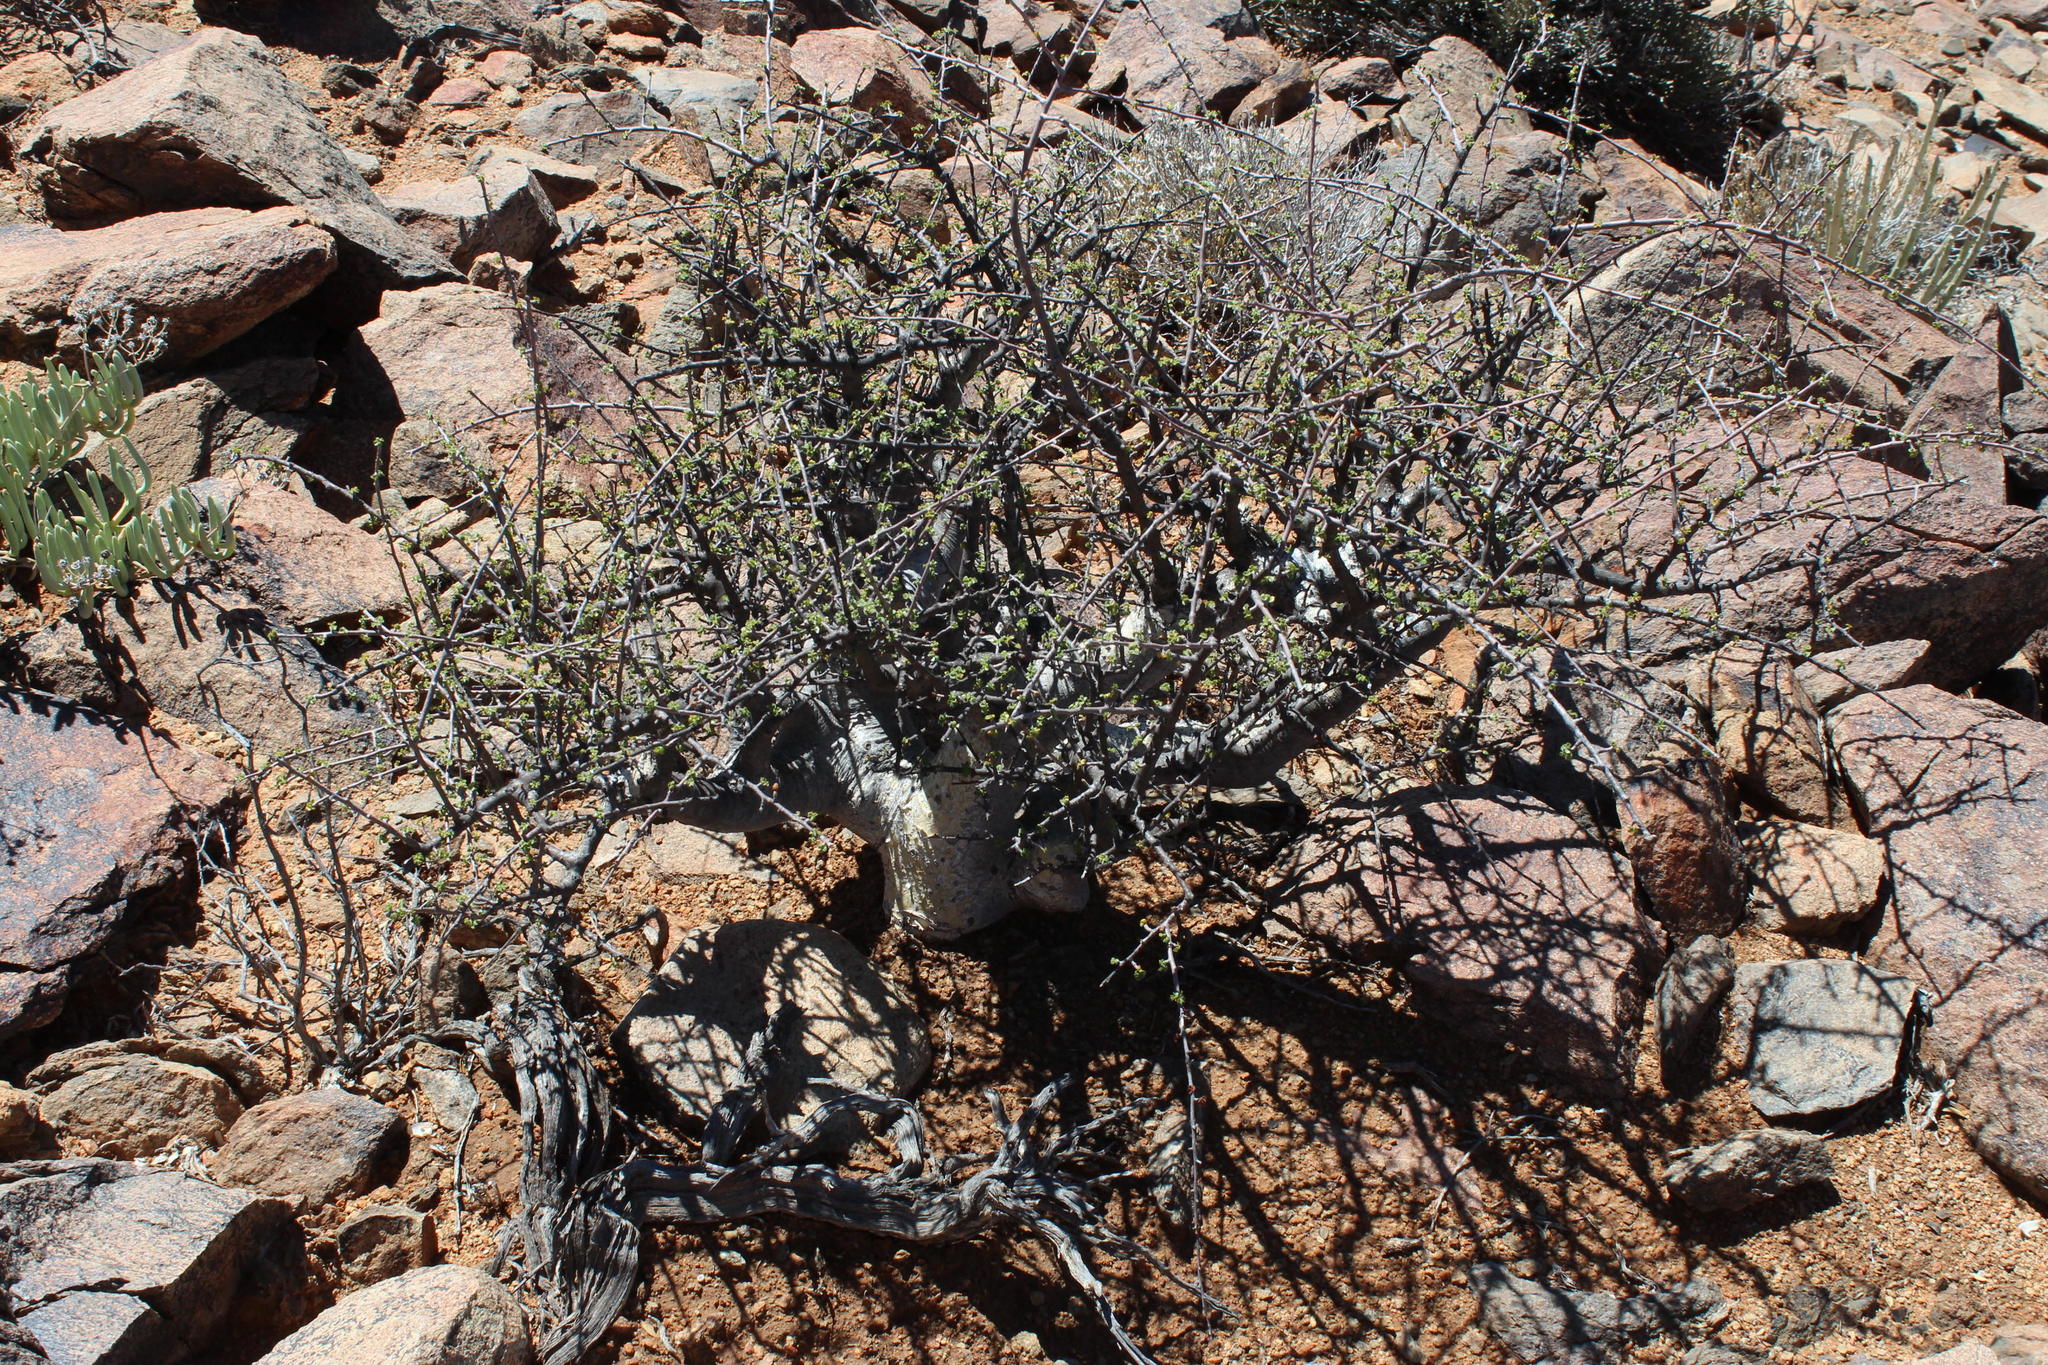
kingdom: Plantae
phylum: Tracheophyta
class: Magnoliopsida
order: Sapindales
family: Burseraceae
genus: Commiphora
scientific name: Commiphora capensis
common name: Namaqua commiphora
